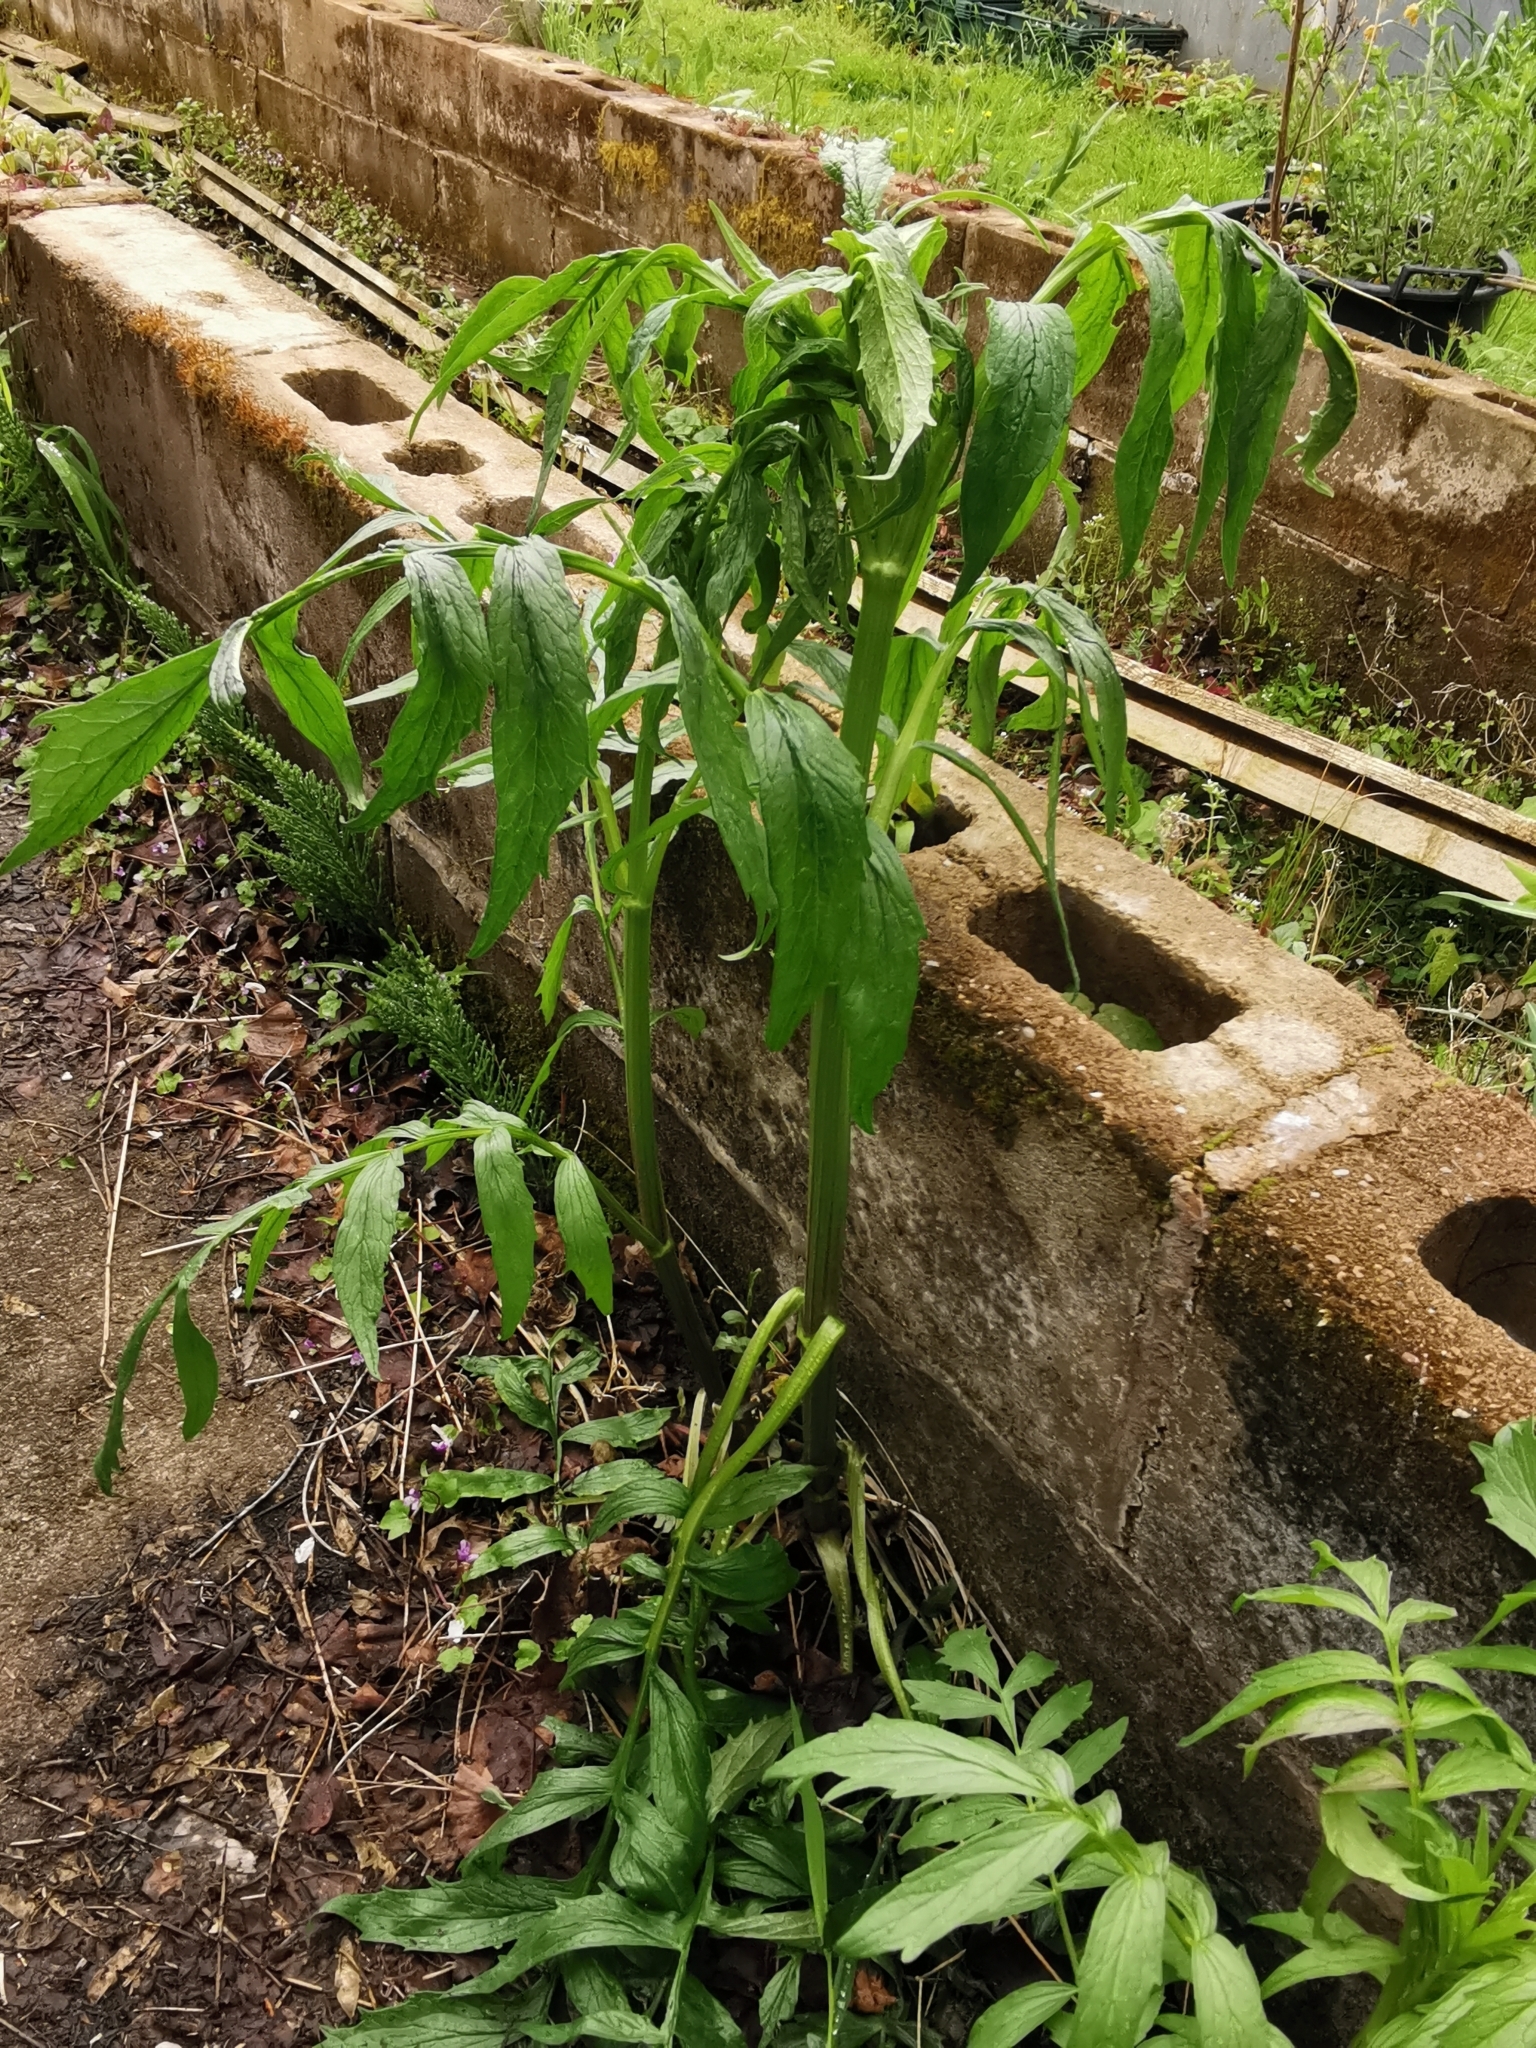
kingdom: Plantae
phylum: Tracheophyta
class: Magnoliopsida
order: Dipsacales
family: Caprifoliaceae
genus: Valeriana
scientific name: Valeriana officinalis
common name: Common valerian
